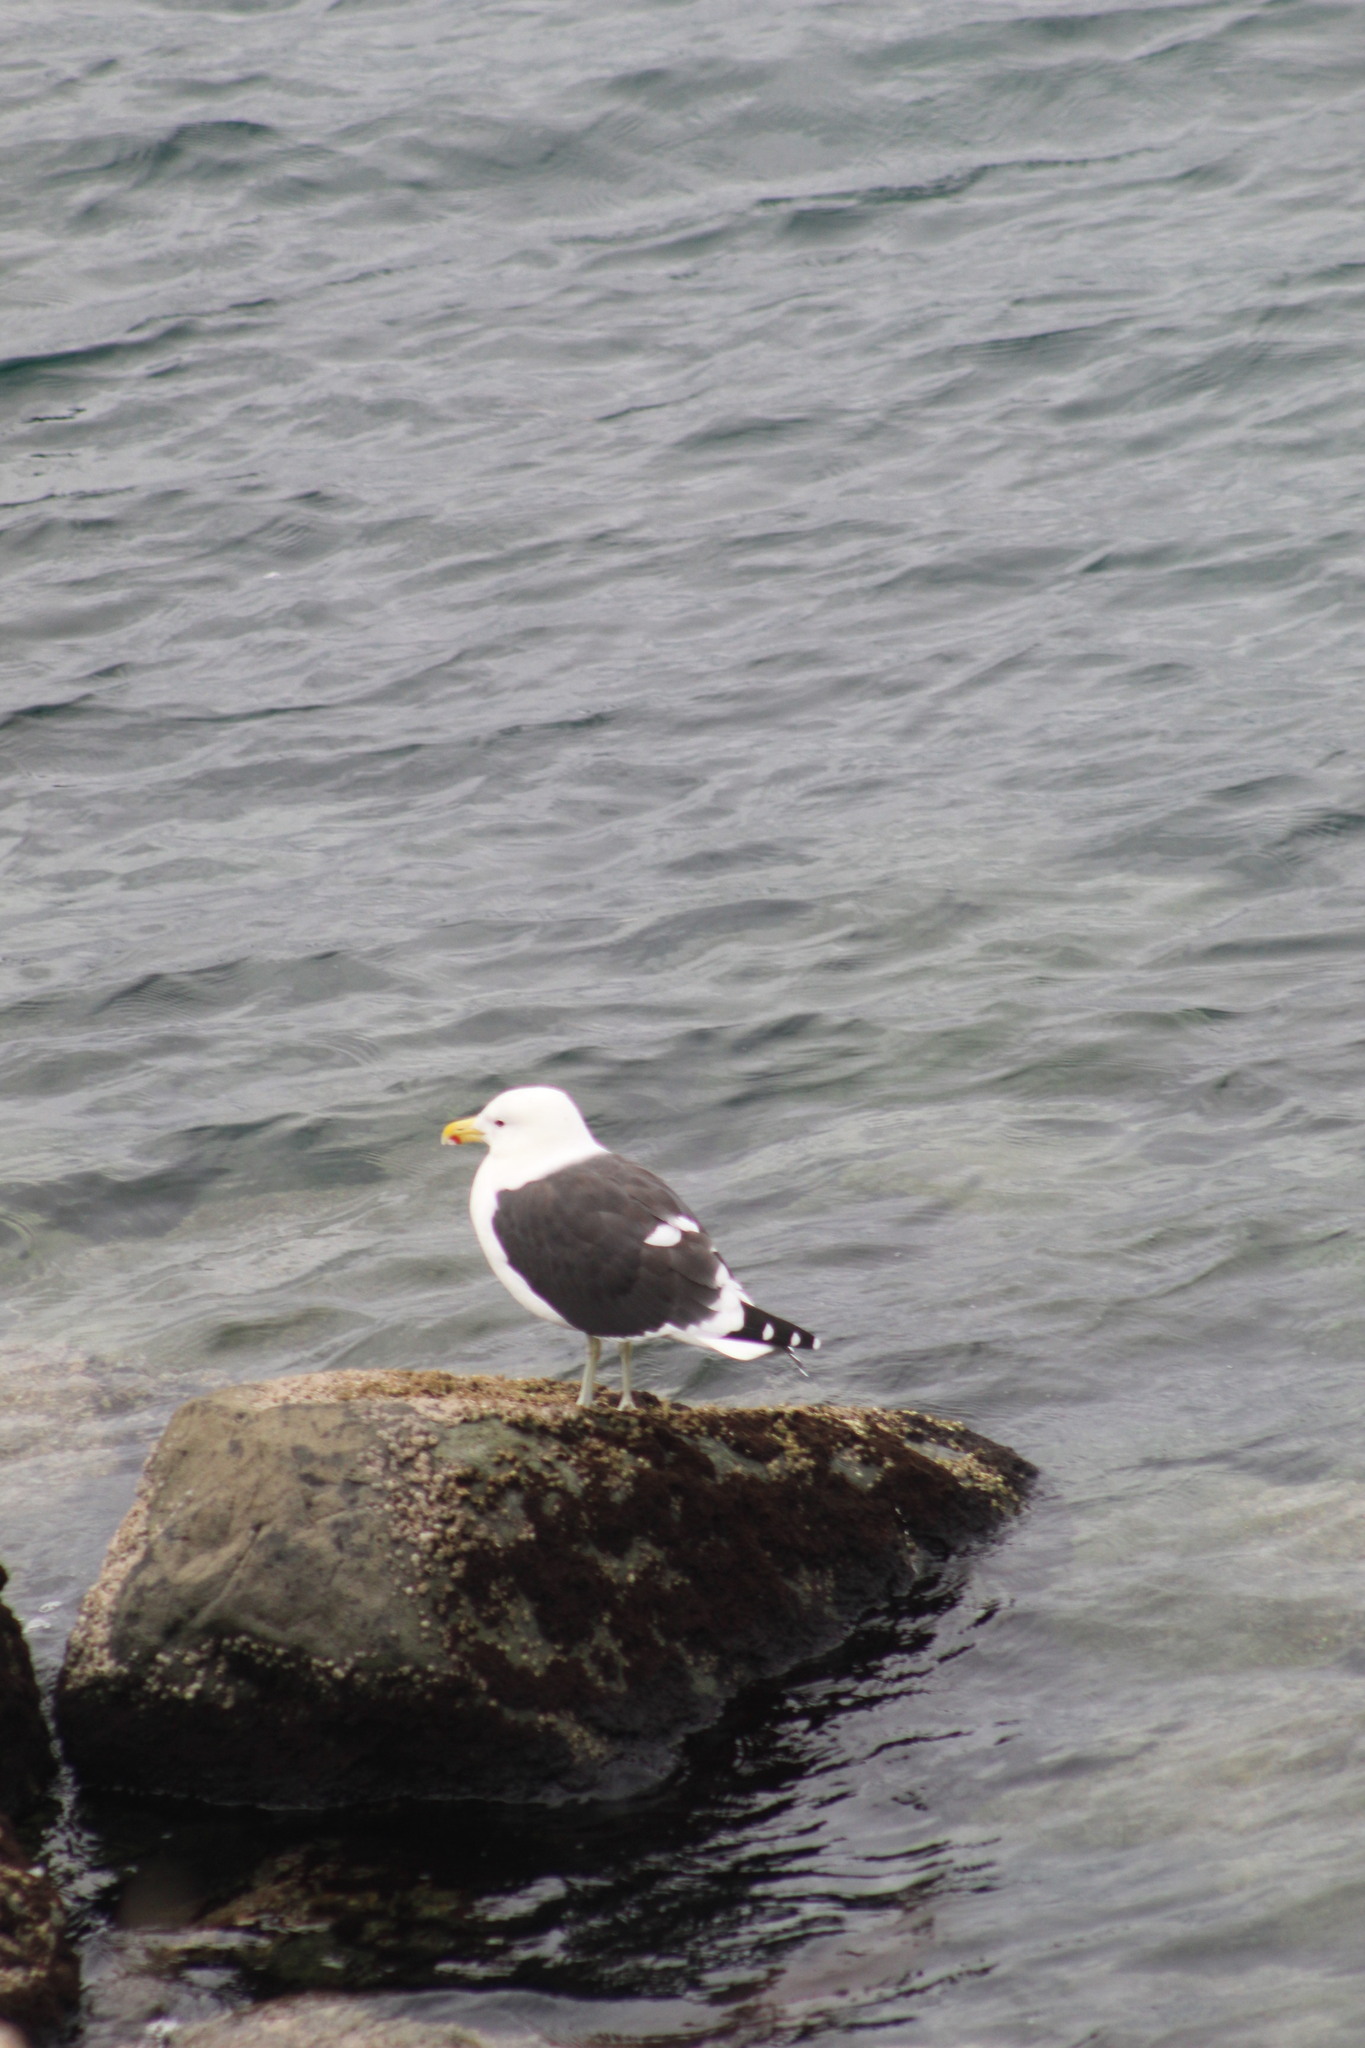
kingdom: Animalia
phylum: Chordata
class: Aves
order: Charadriiformes
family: Laridae
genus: Larus
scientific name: Larus dominicanus
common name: Kelp gull
